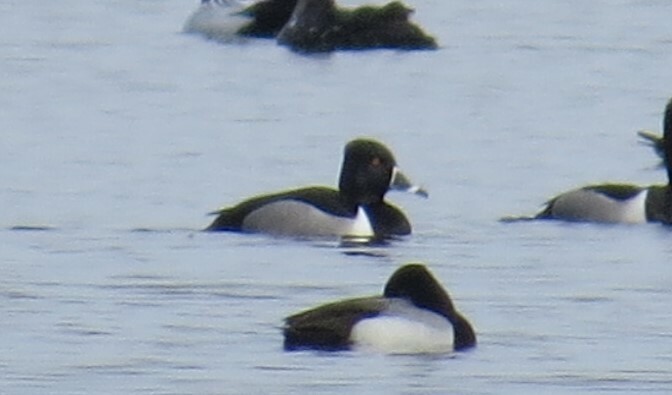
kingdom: Animalia
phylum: Chordata
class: Aves
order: Anseriformes
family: Anatidae
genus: Aythya
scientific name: Aythya collaris
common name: Ring-necked duck
